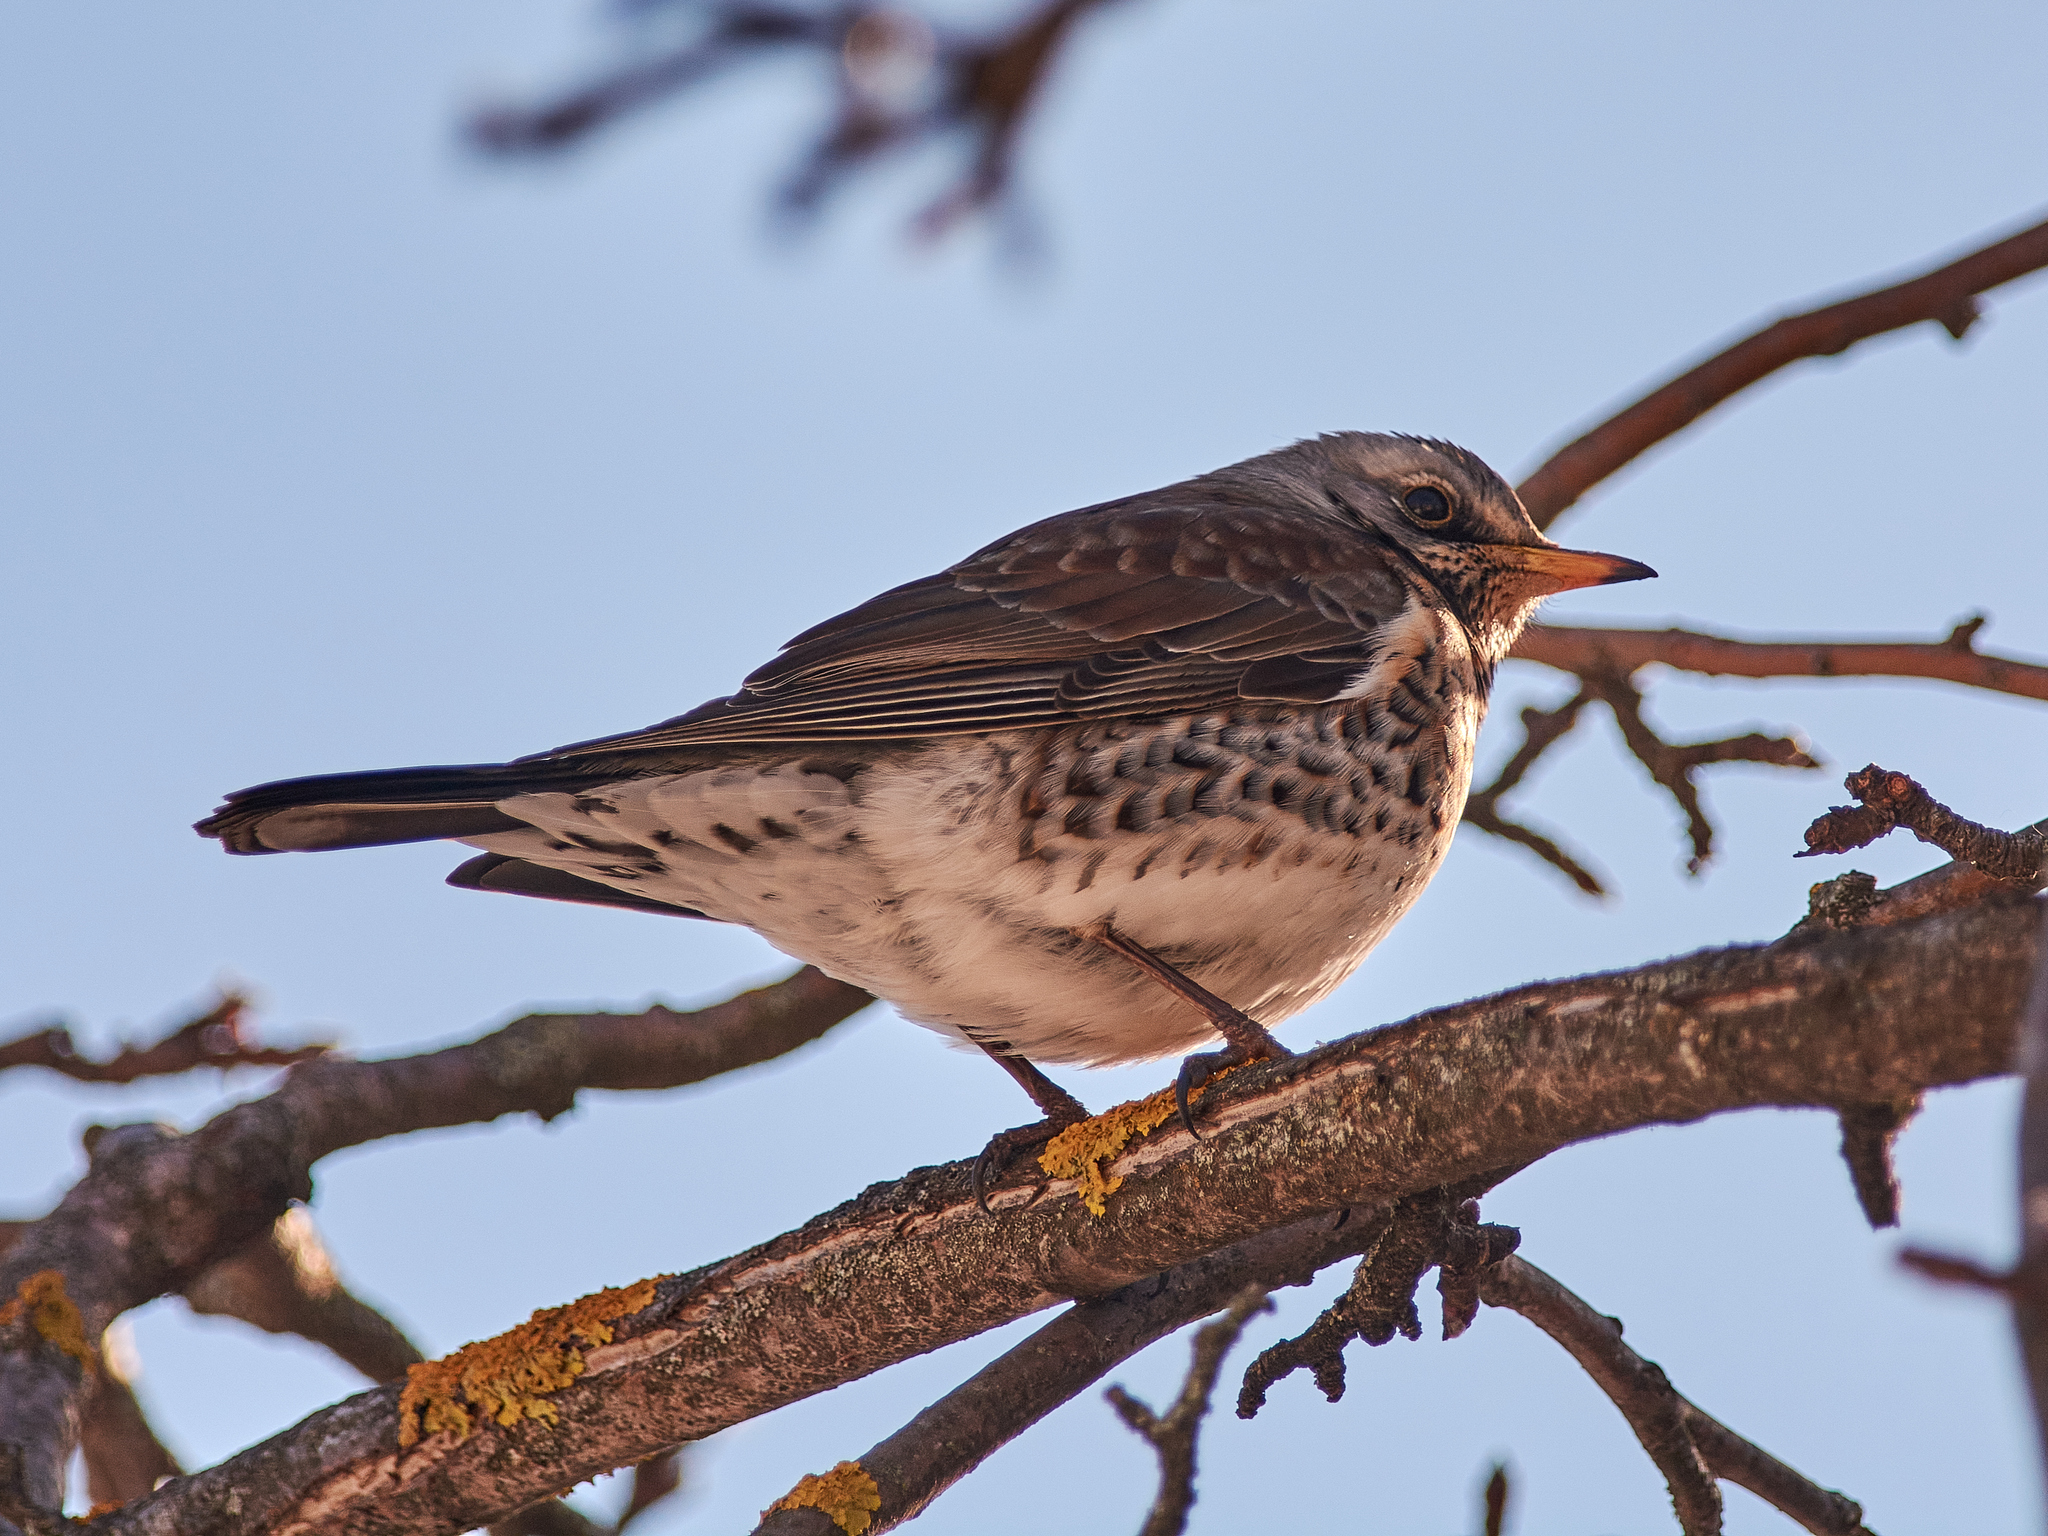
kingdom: Animalia
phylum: Chordata
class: Aves
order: Passeriformes
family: Turdidae
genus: Turdus
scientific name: Turdus pilaris
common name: Fieldfare
